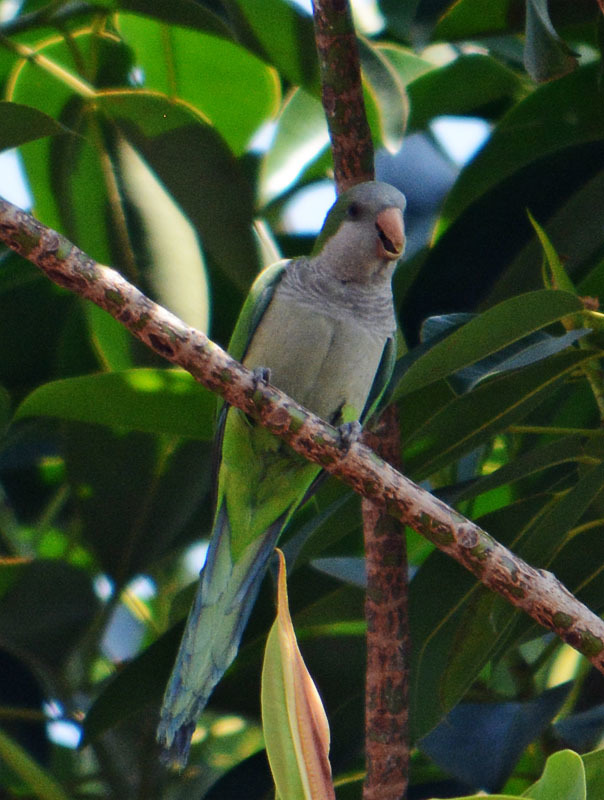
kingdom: Animalia
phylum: Chordata
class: Aves
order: Psittaciformes
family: Psittacidae
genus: Myiopsitta
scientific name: Myiopsitta monachus
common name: Monk parakeet
